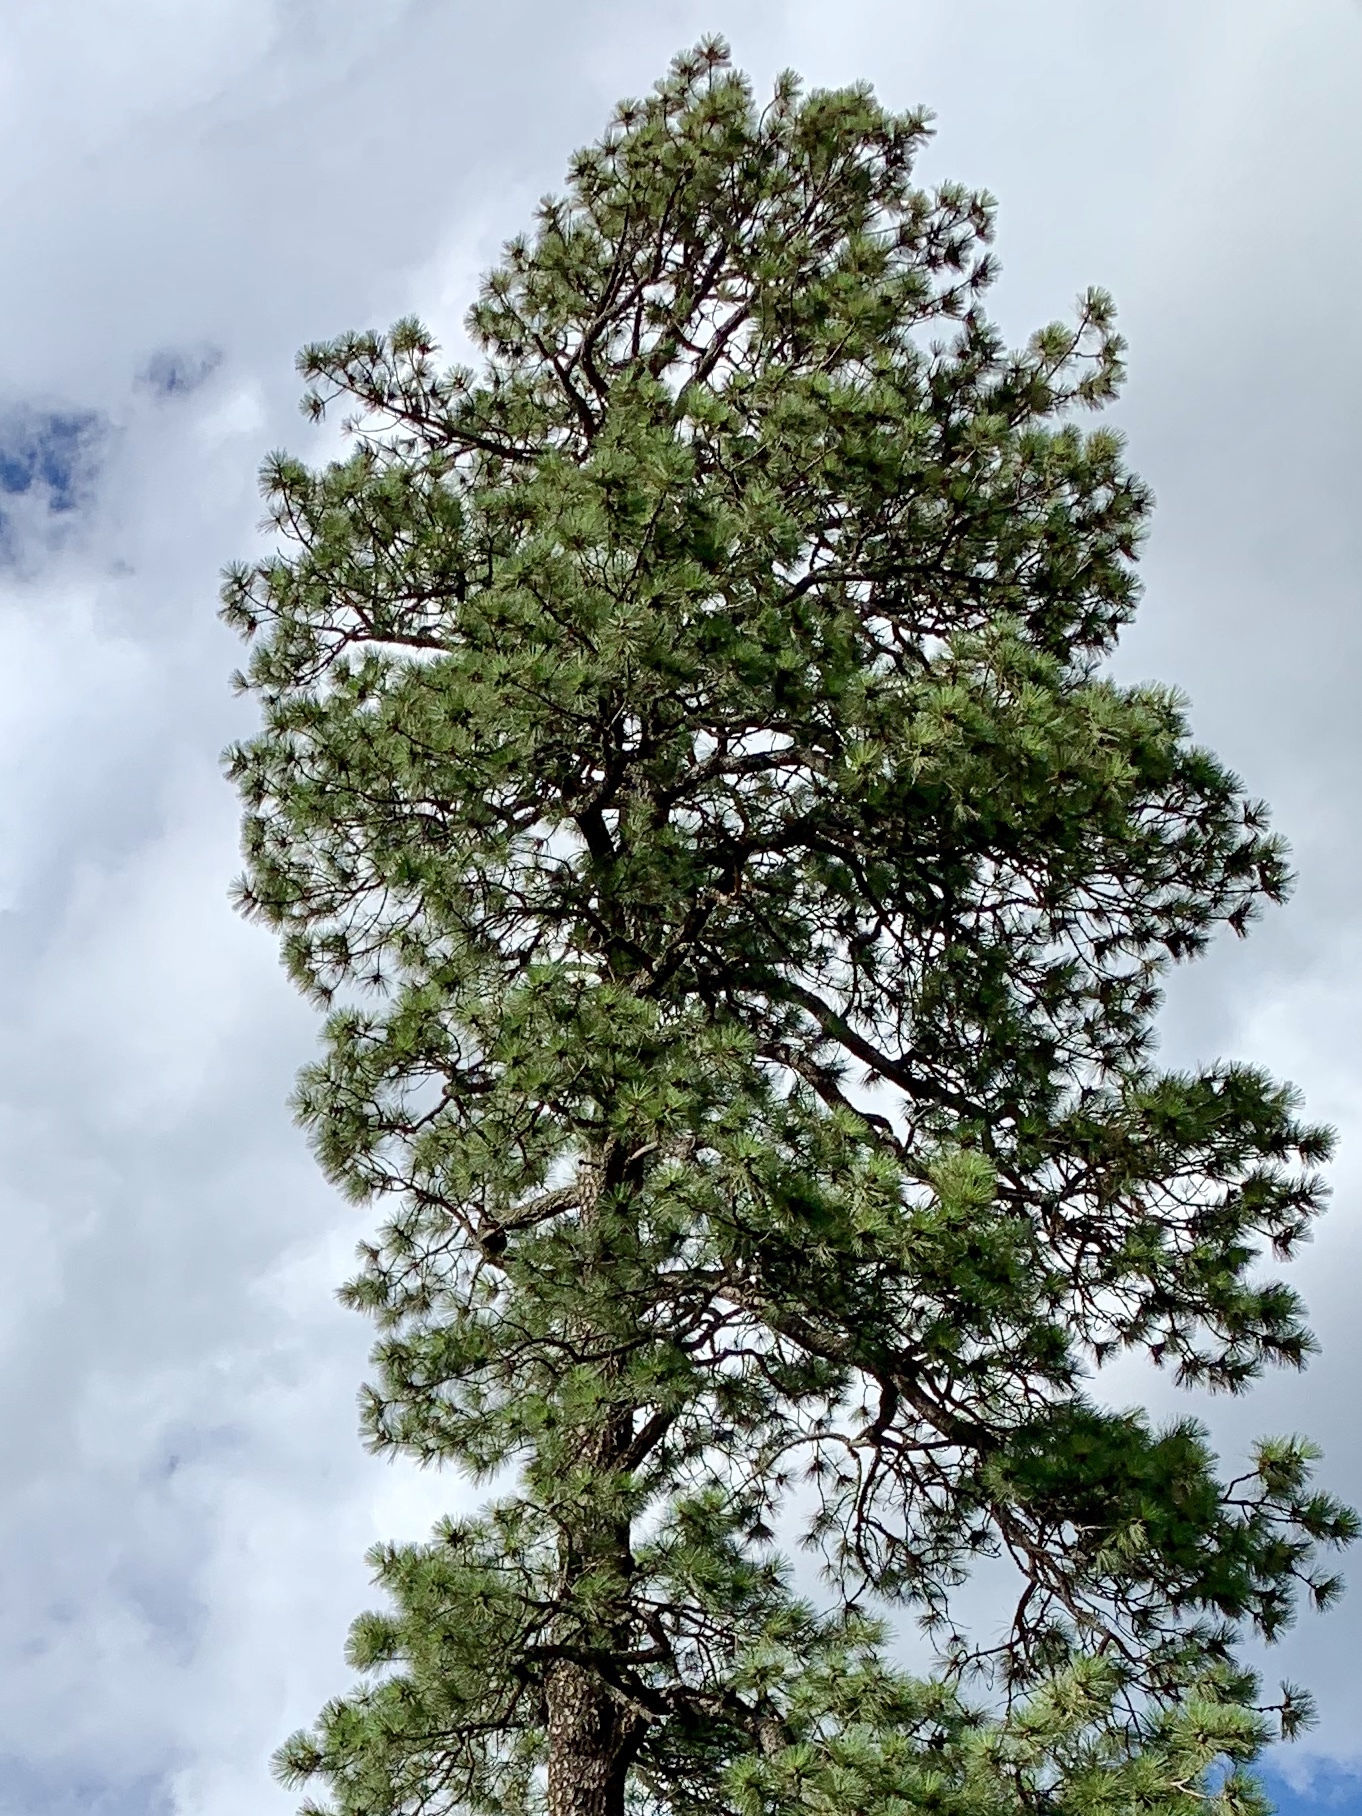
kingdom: Plantae
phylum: Tracheophyta
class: Pinopsida
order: Pinales
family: Pinaceae
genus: Pinus
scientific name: Pinus ponderosa
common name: Western yellow-pine
